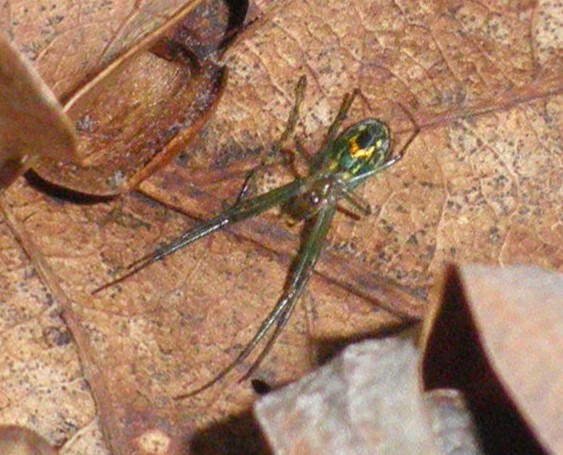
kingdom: Animalia
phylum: Arthropoda
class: Arachnida
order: Araneae
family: Tetragnathidae
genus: Leucauge
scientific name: Leucauge venusta
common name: Longjawed orb weavers
